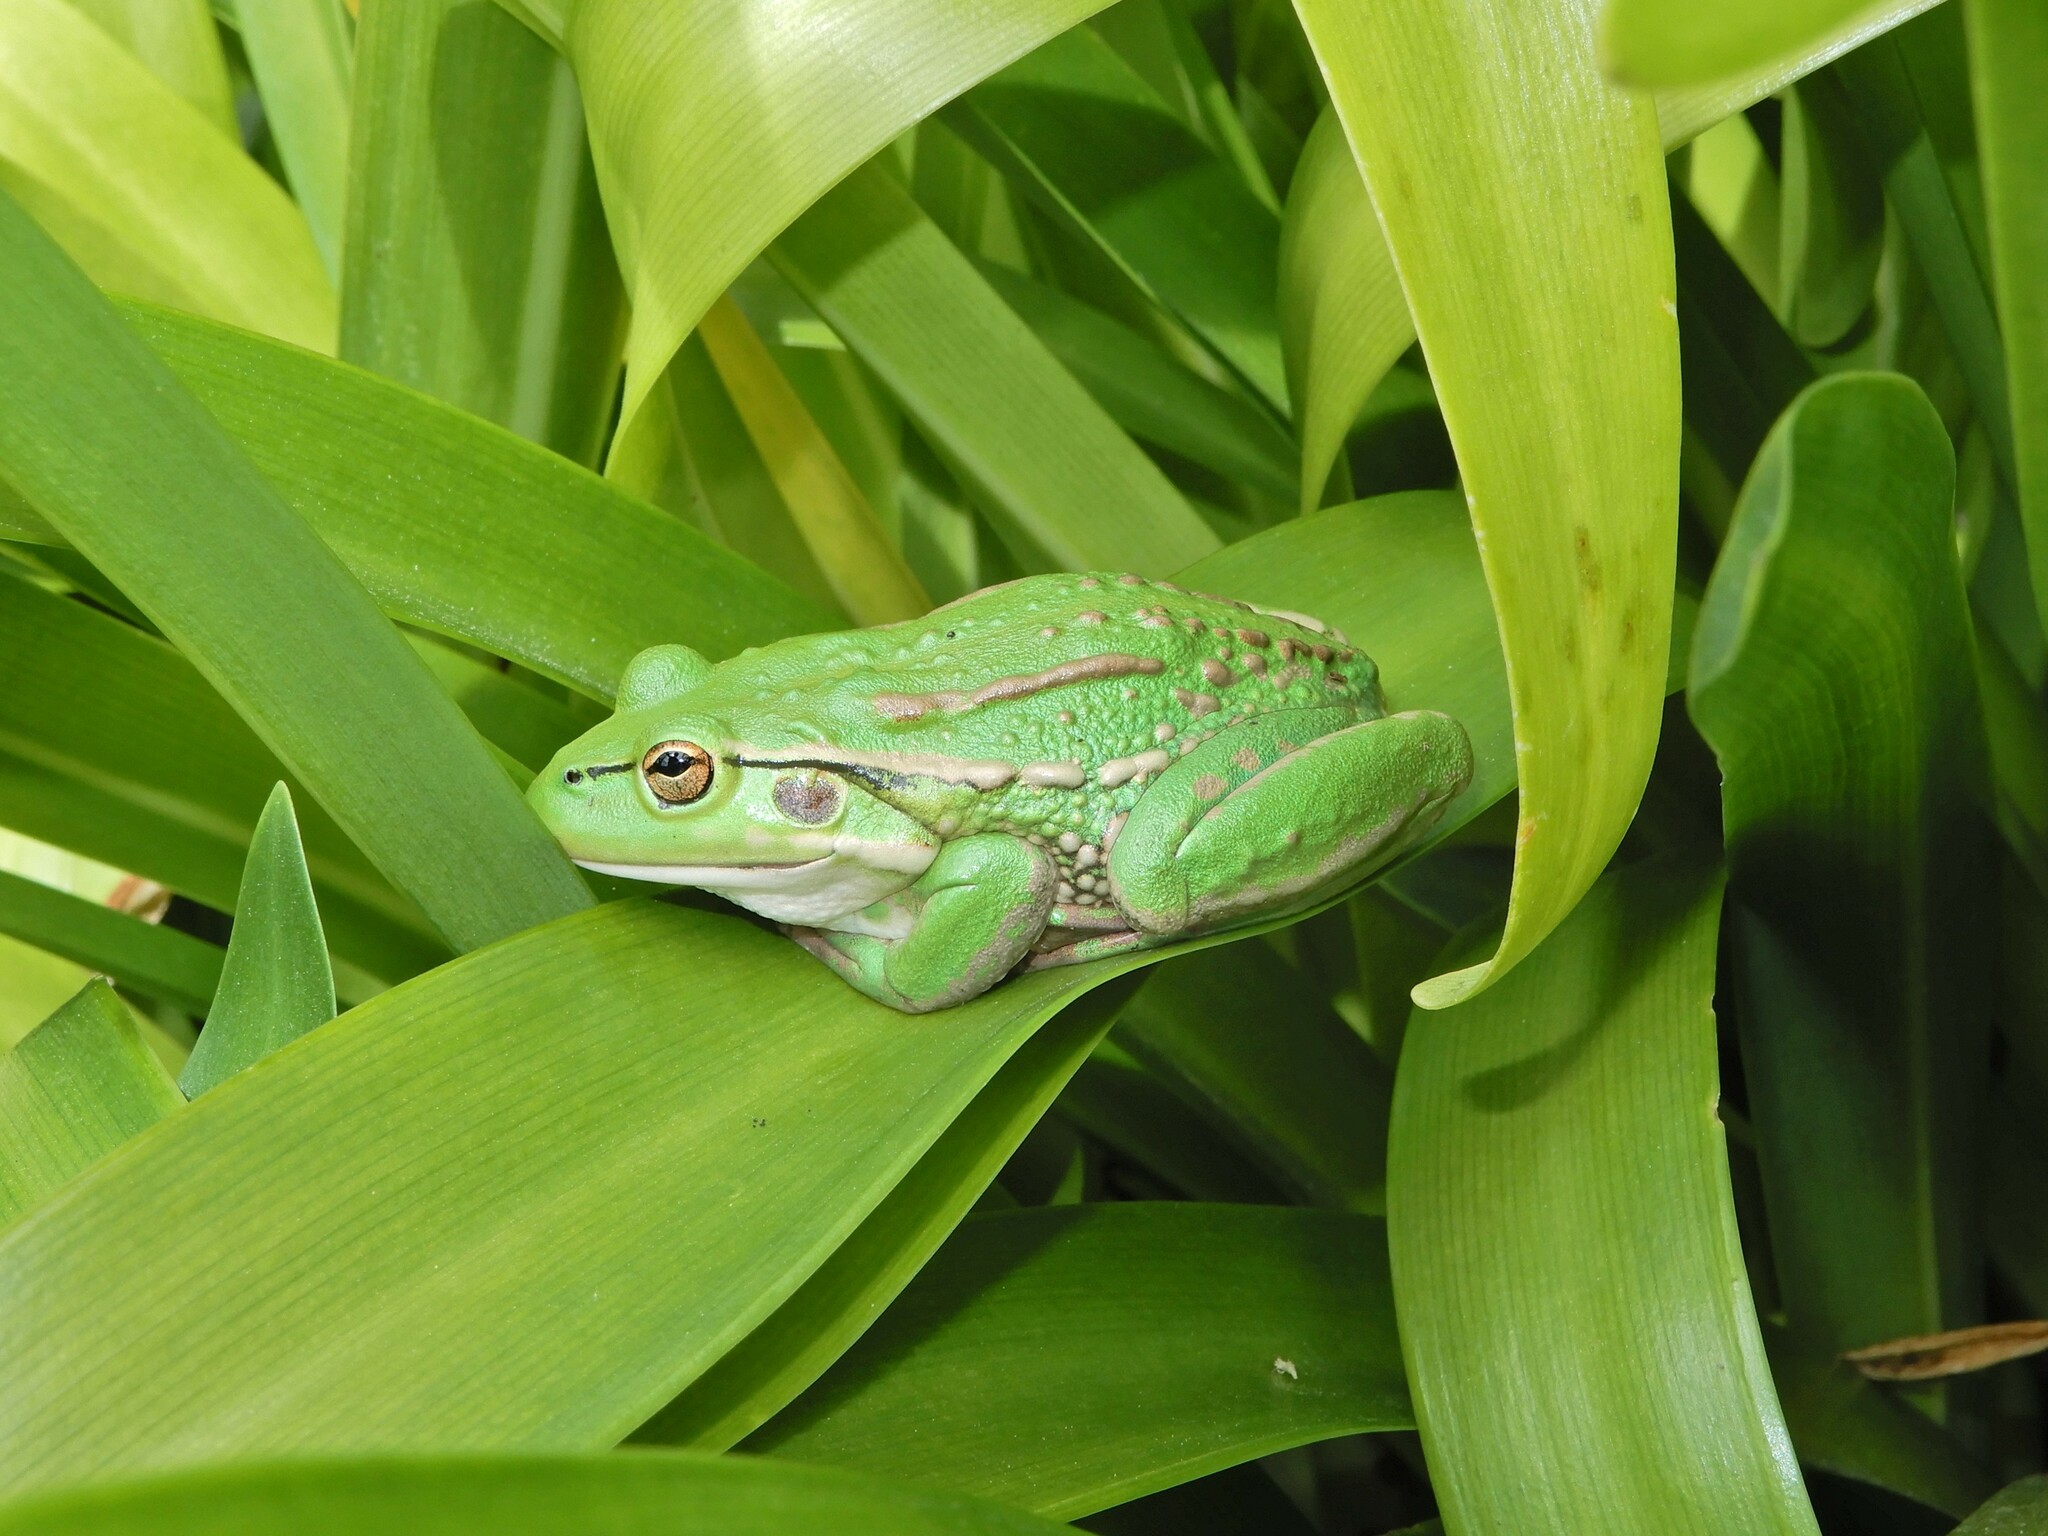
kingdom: Animalia
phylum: Chordata
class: Amphibia
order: Anura
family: Pelodryadidae
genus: Ranoidea
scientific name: Ranoidea raniformis
